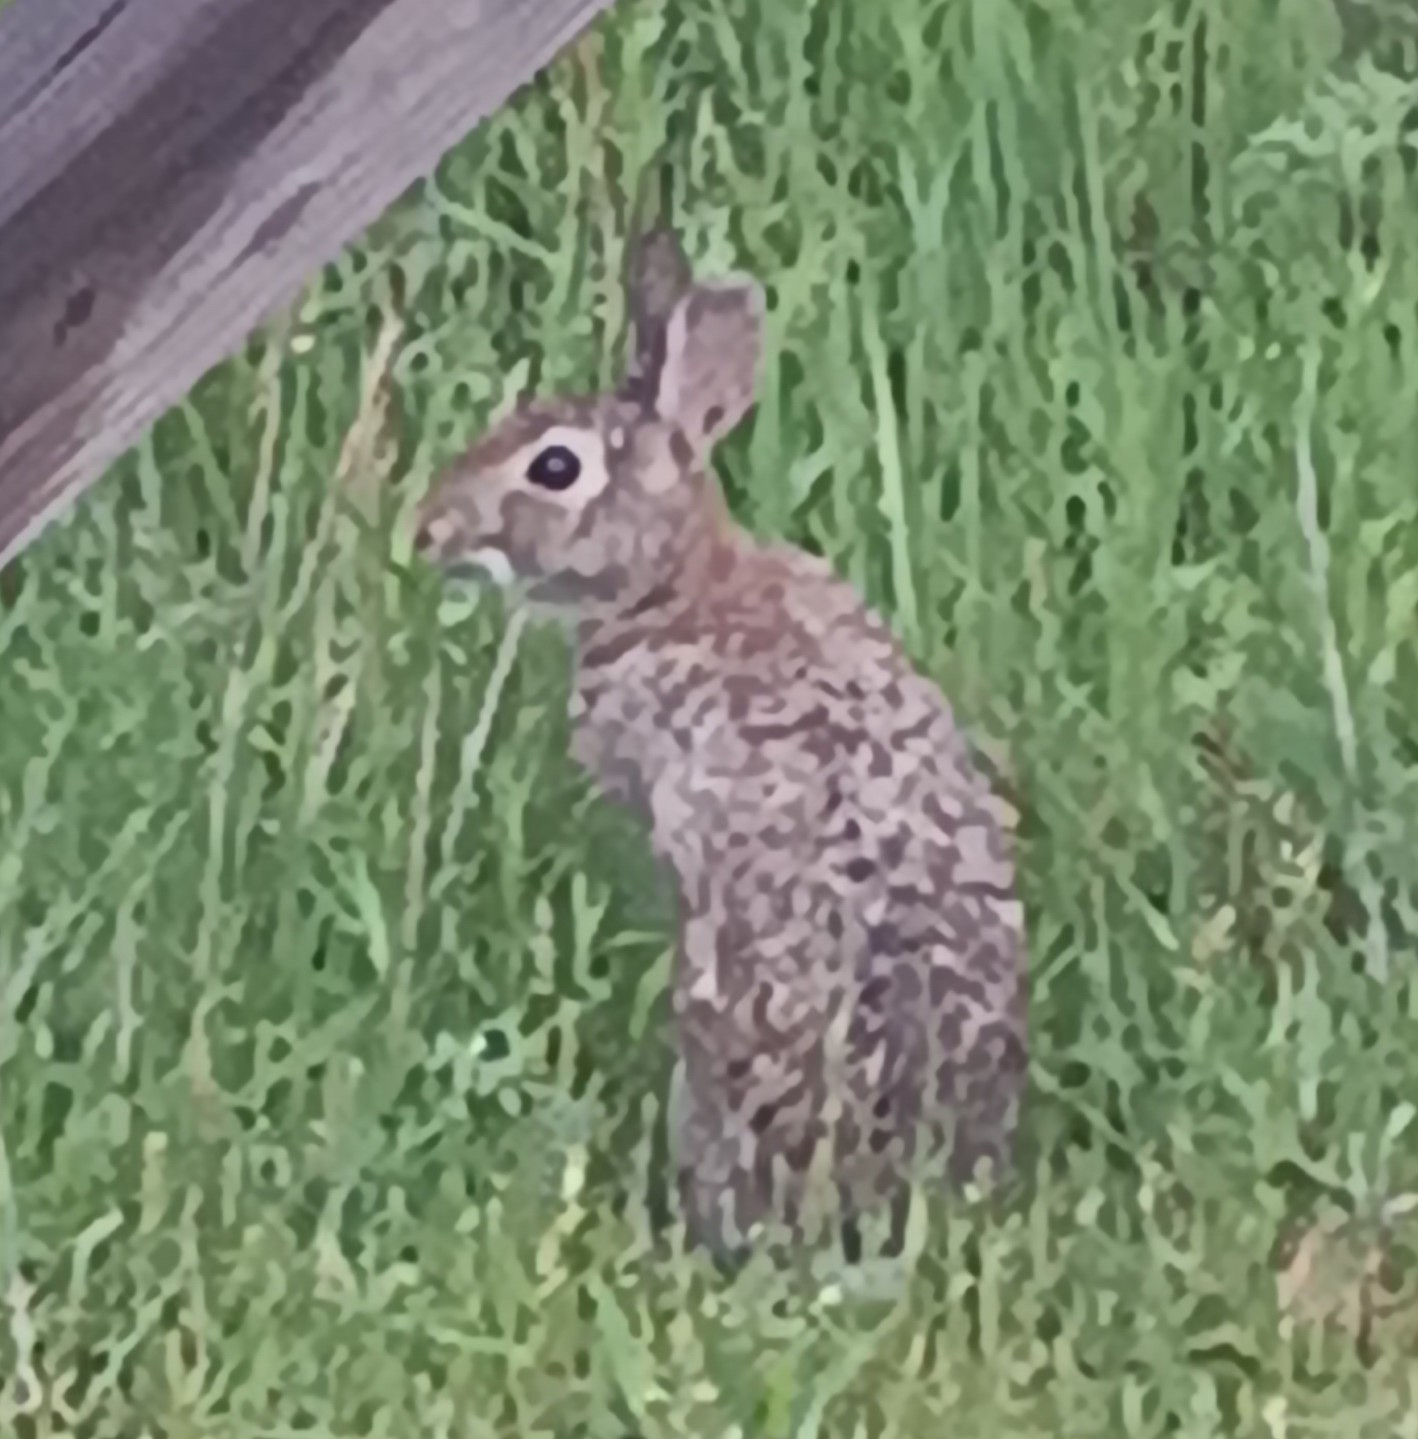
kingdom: Animalia
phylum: Chordata
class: Mammalia
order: Lagomorpha
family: Leporidae
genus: Sylvilagus
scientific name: Sylvilagus floridanus
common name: Eastern cottontail
